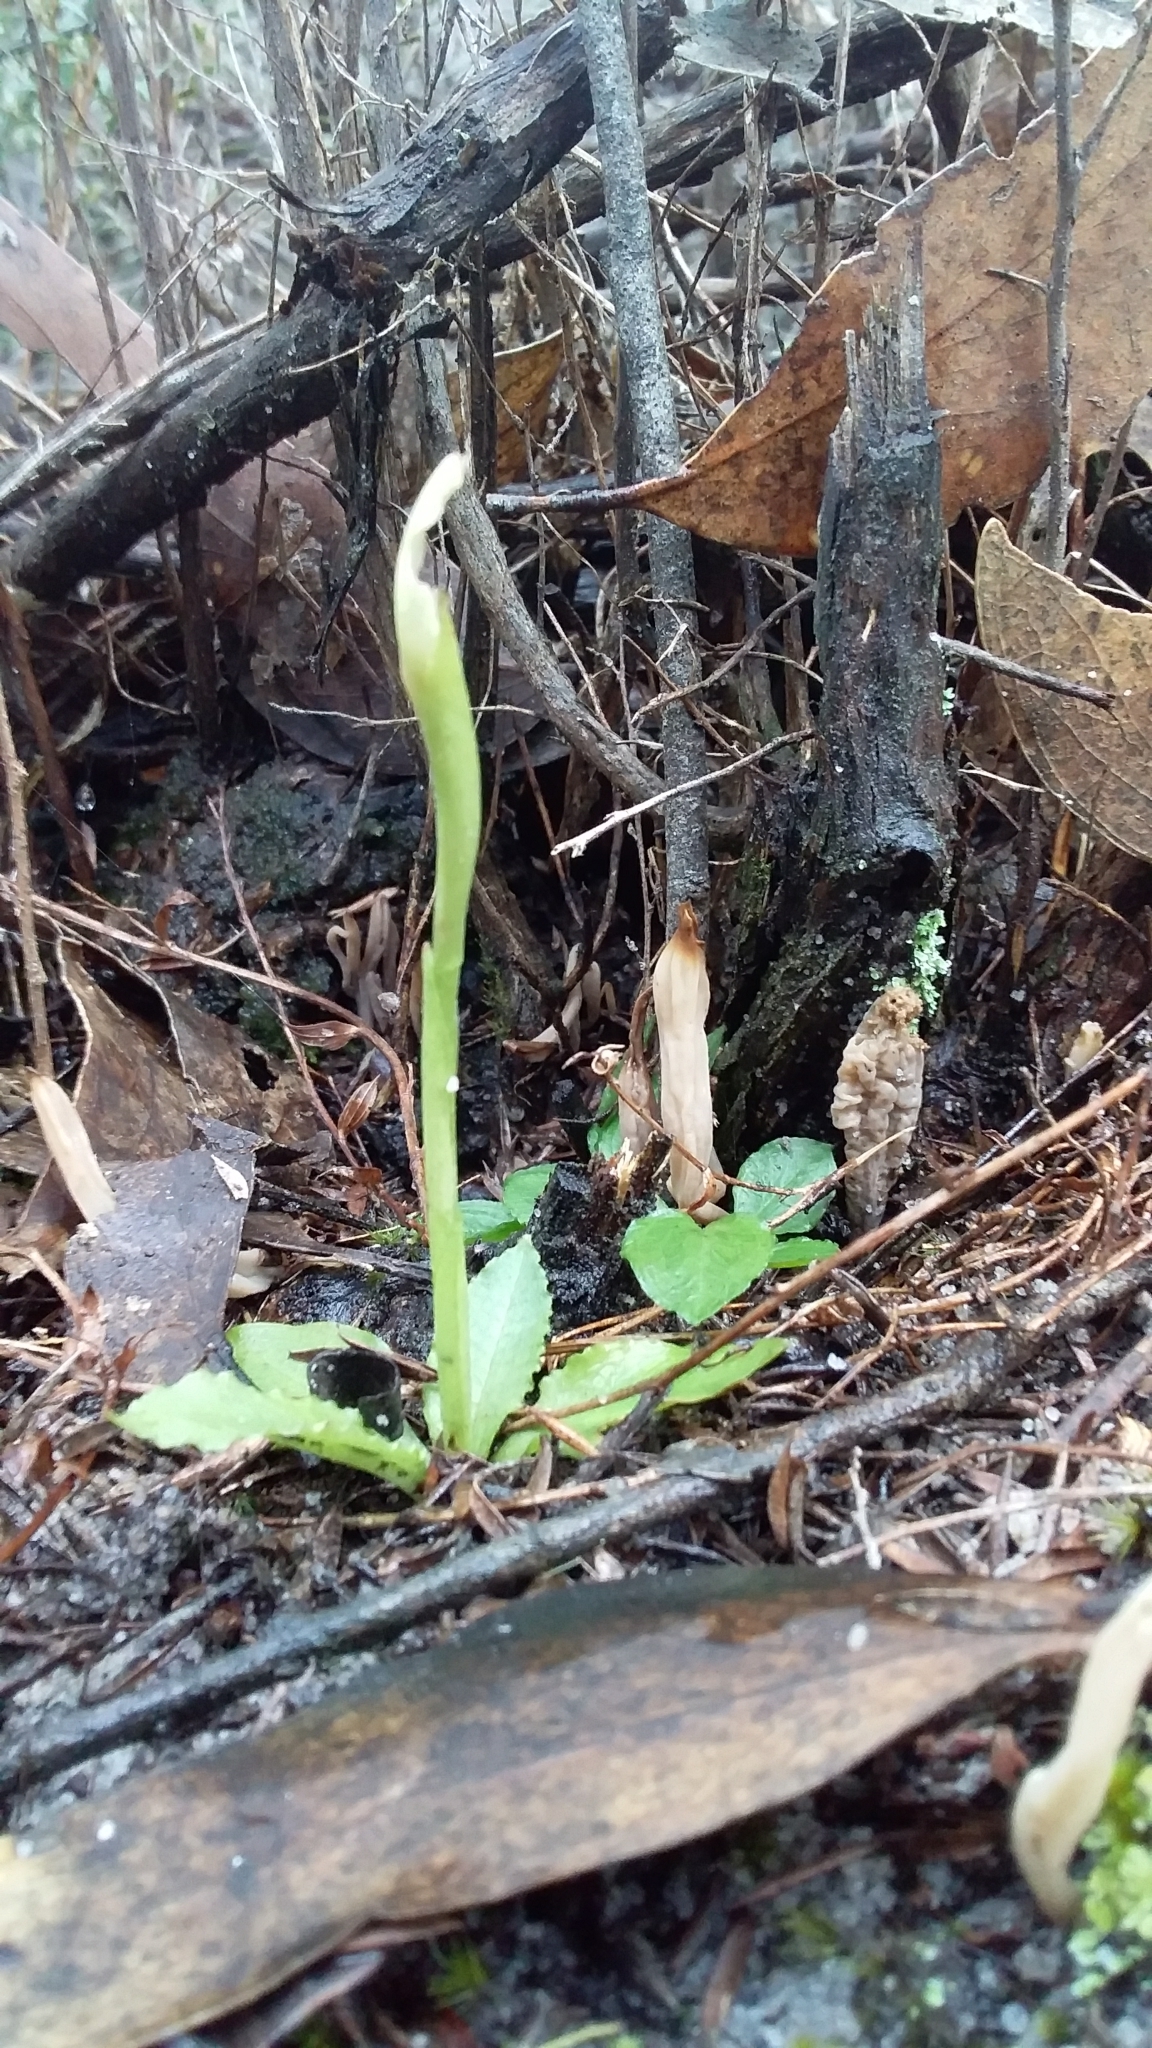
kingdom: Plantae
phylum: Tracheophyta
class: Liliopsida
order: Asparagales
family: Orchidaceae
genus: Pterostylis
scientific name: Pterostylis nutans
